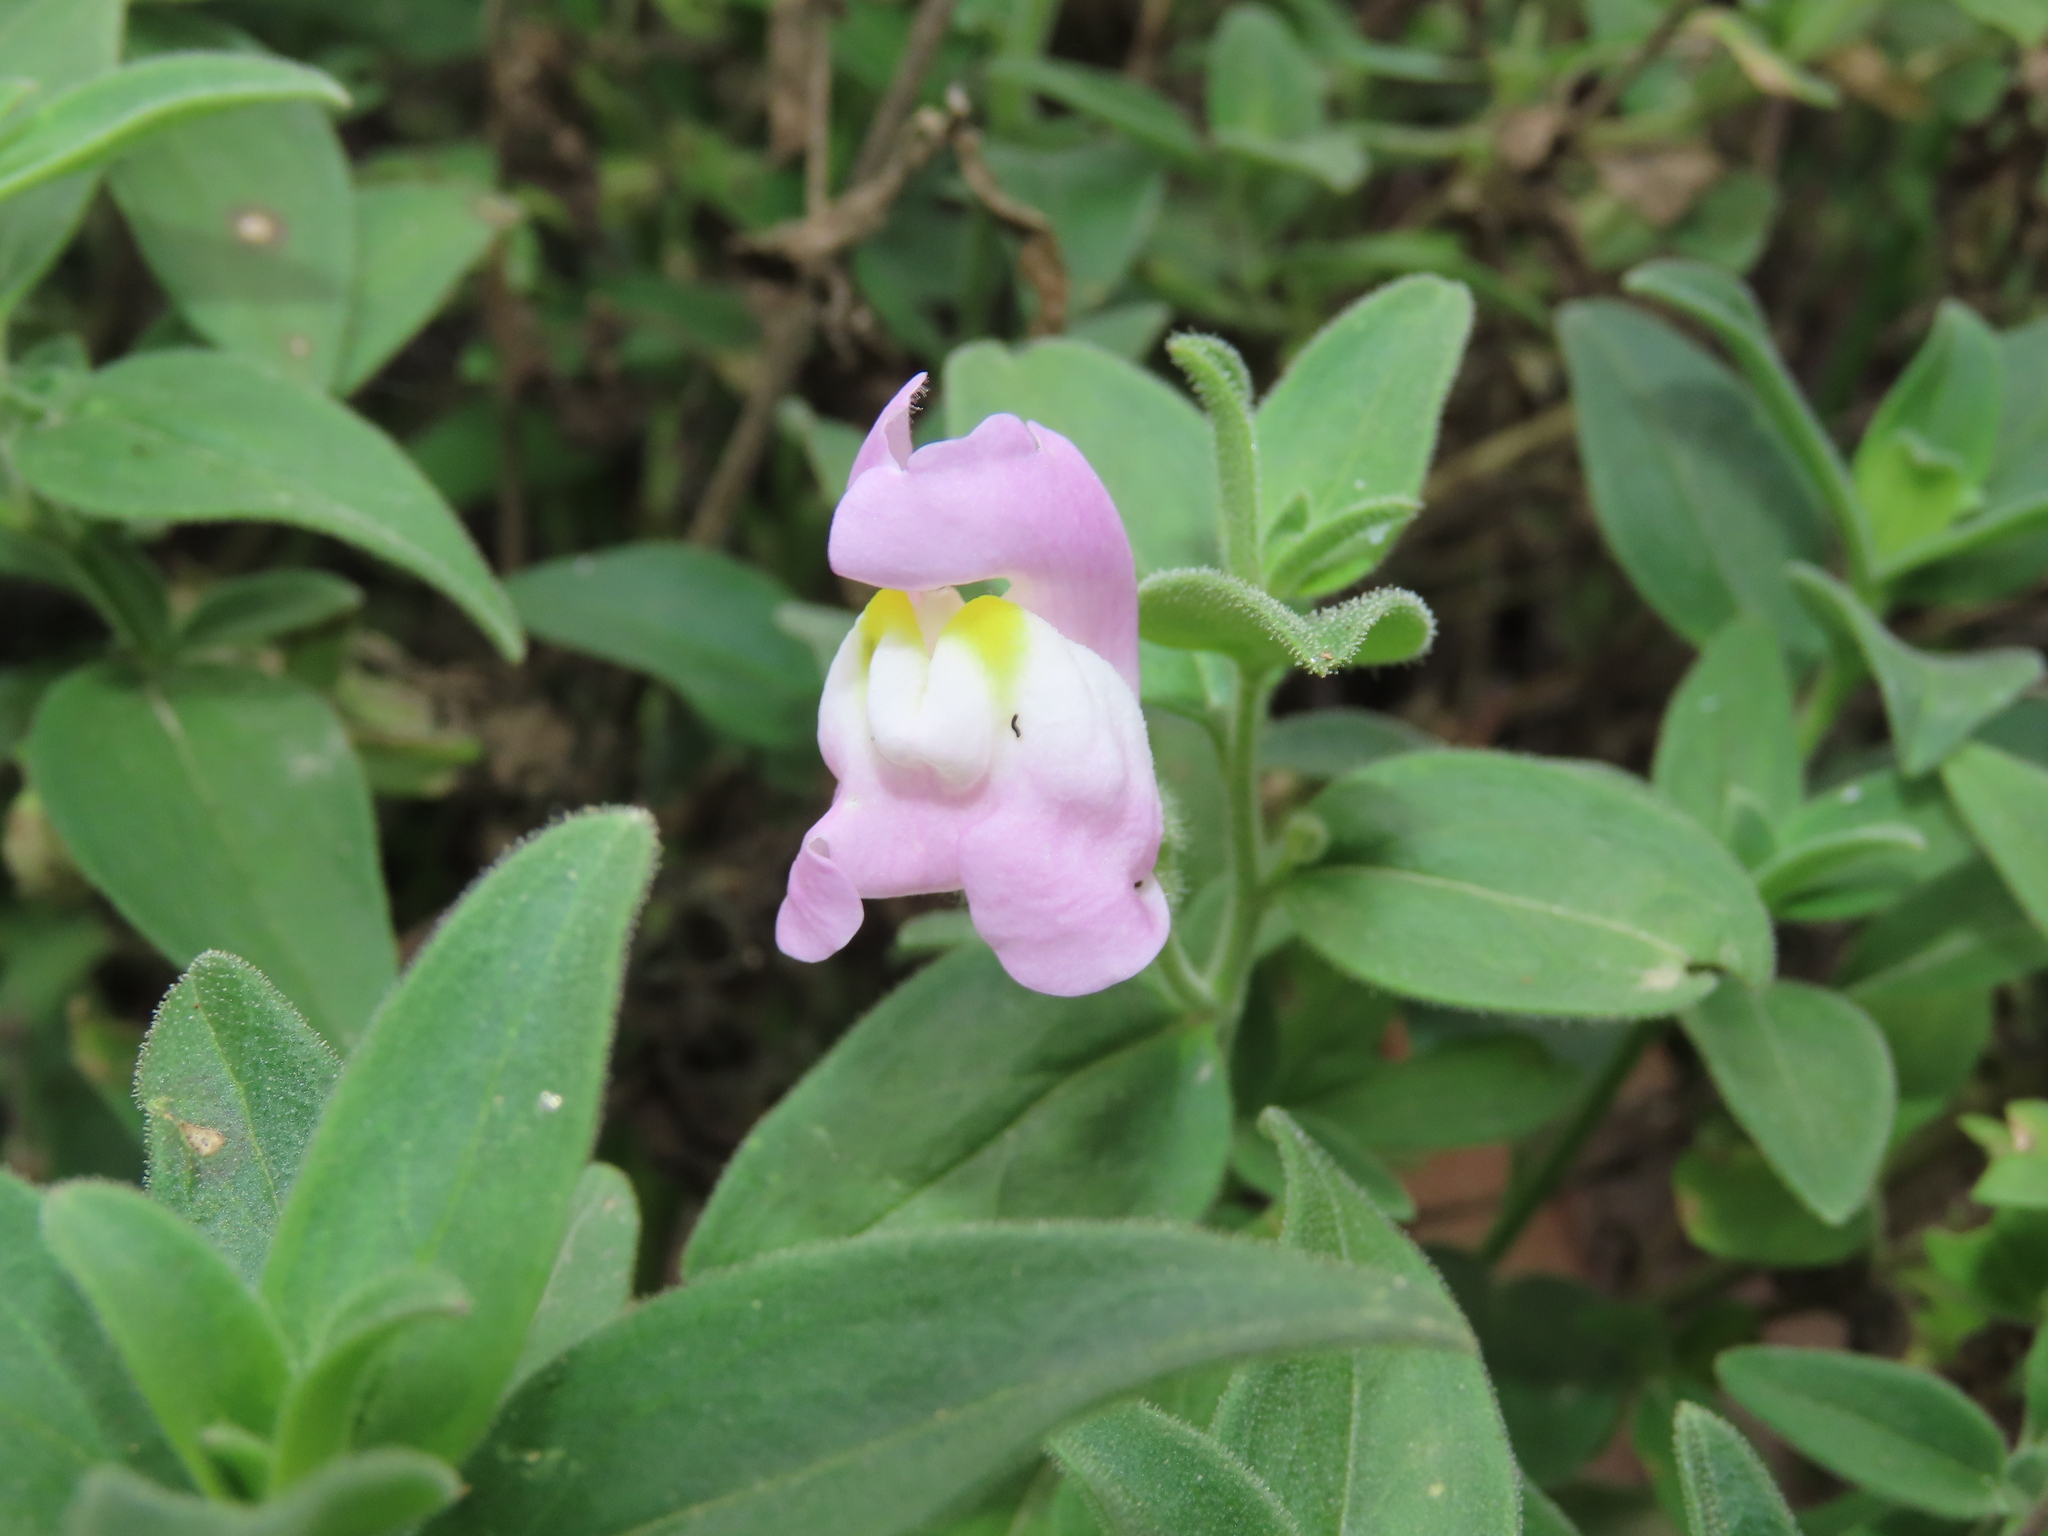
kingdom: Plantae
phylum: Tracheophyta
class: Magnoliopsida
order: Lamiales
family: Plantaginaceae
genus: Antirrhinum
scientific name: Antirrhinum graniticum
